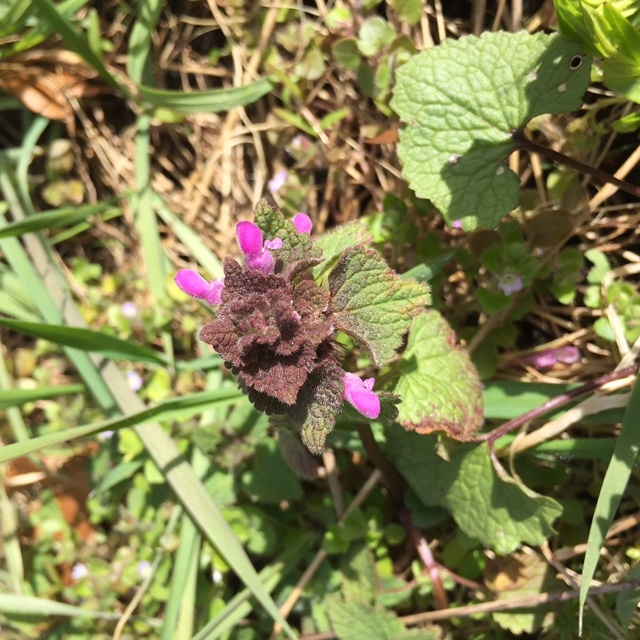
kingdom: Plantae
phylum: Tracheophyta
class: Magnoliopsida
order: Lamiales
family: Lamiaceae
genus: Lamium
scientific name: Lamium purpureum
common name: Red dead-nettle
